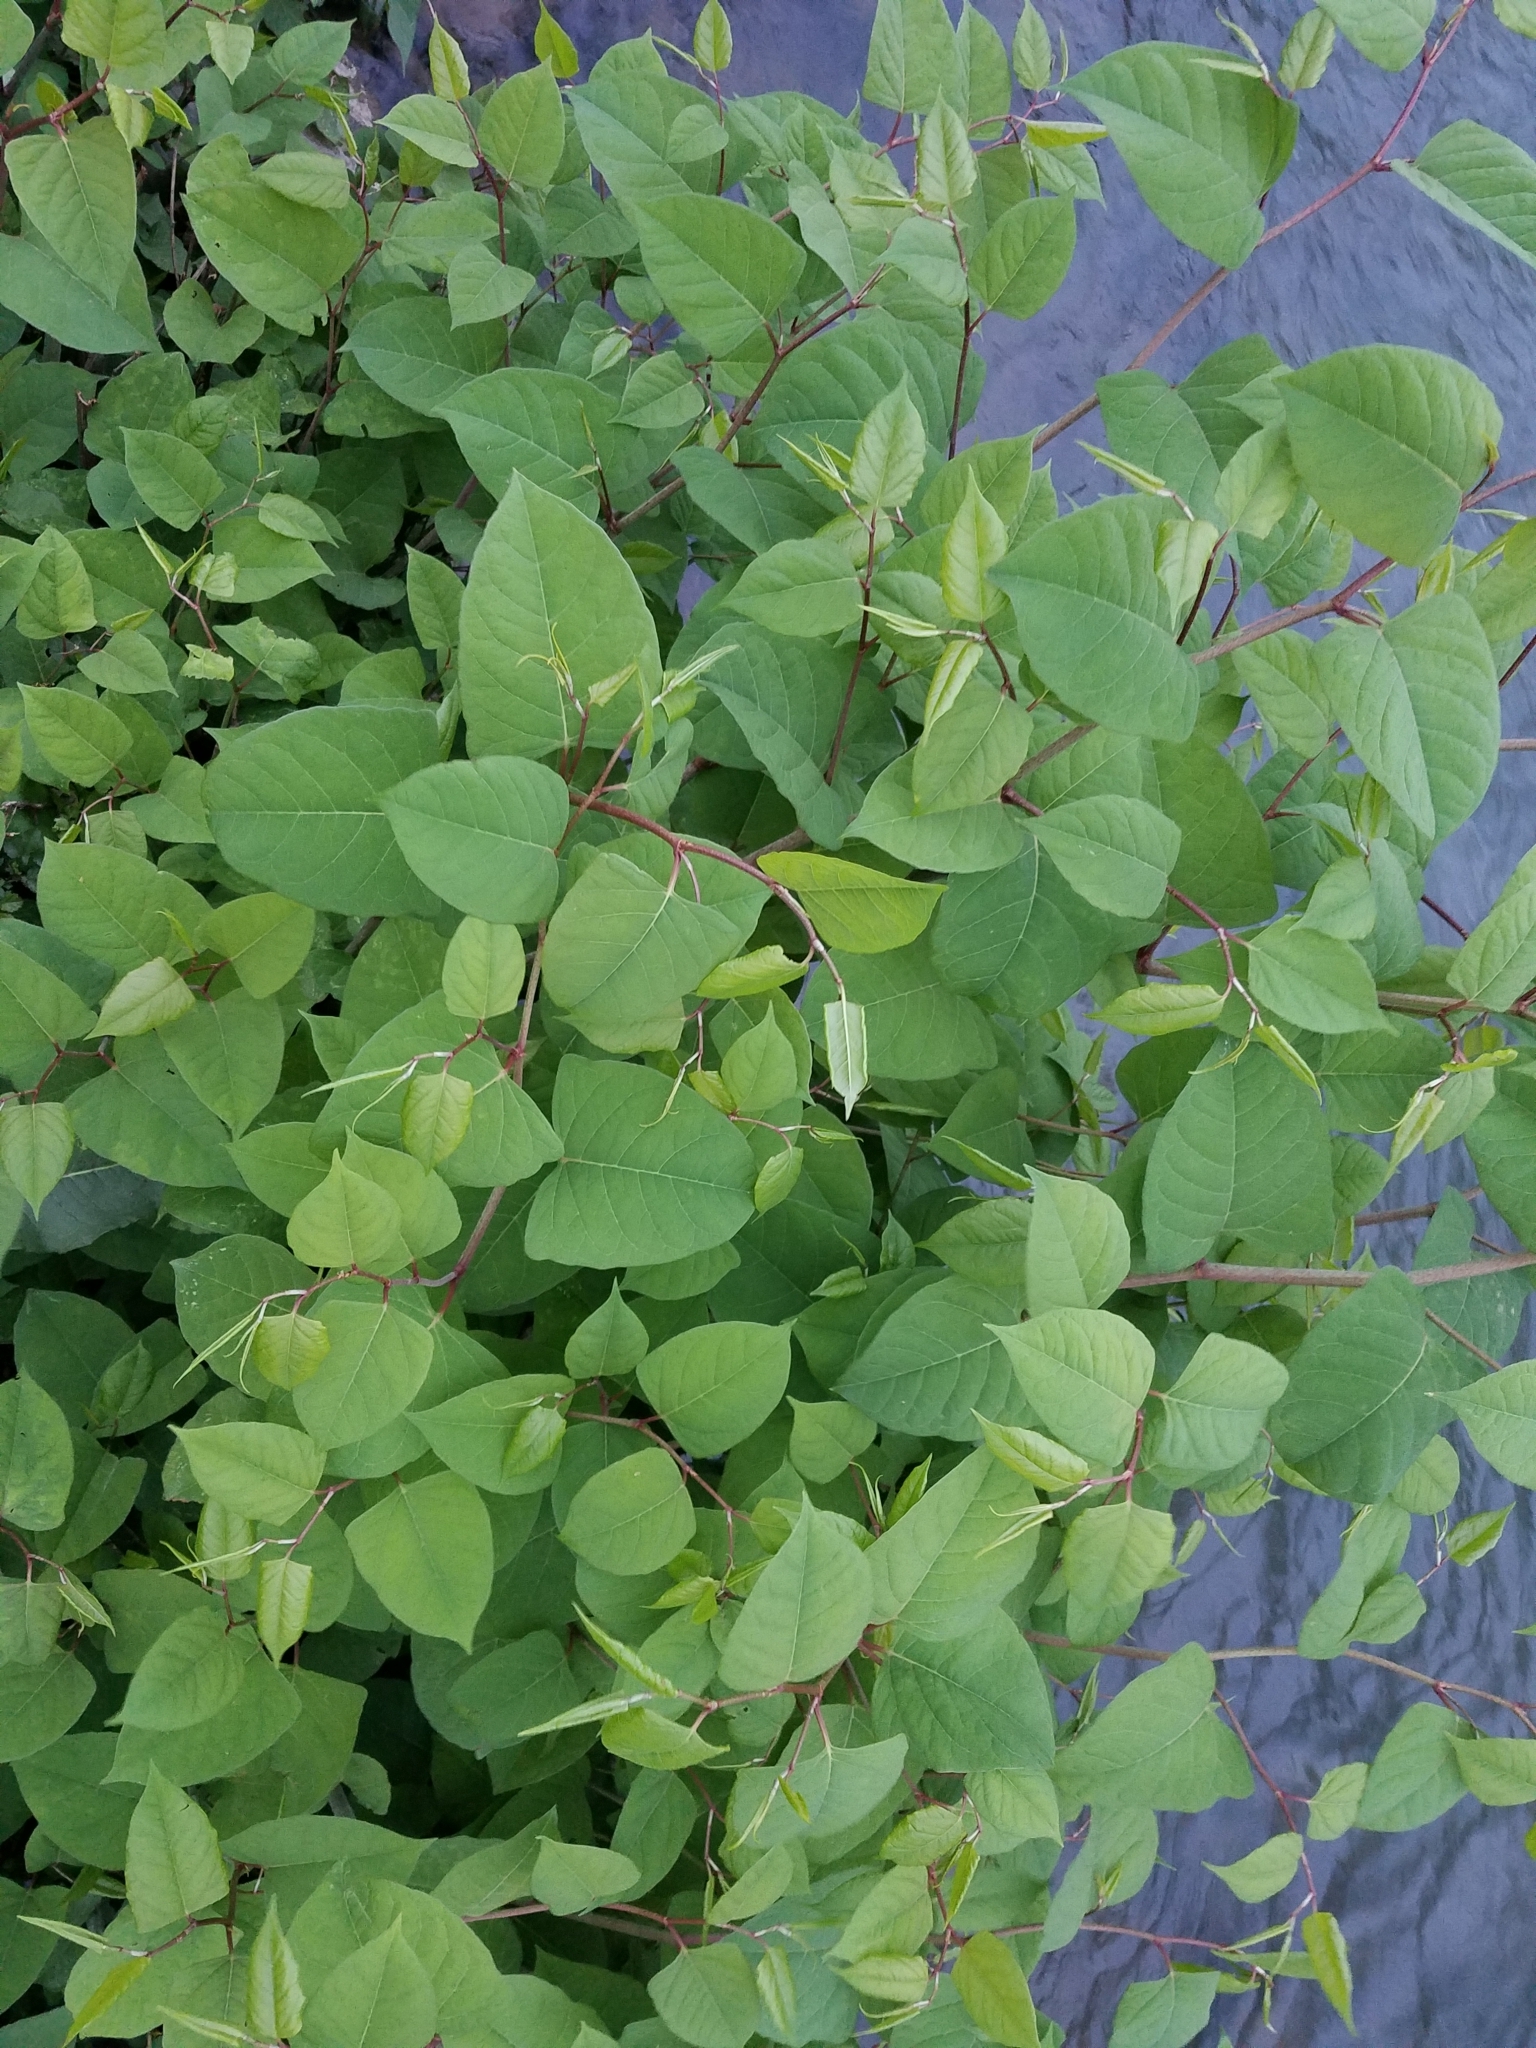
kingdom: Plantae
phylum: Tracheophyta
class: Magnoliopsida
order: Caryophyllales
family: Polygonaceae
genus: Reynoutria
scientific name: Reynoutria japonica
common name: Japanese knotweed
